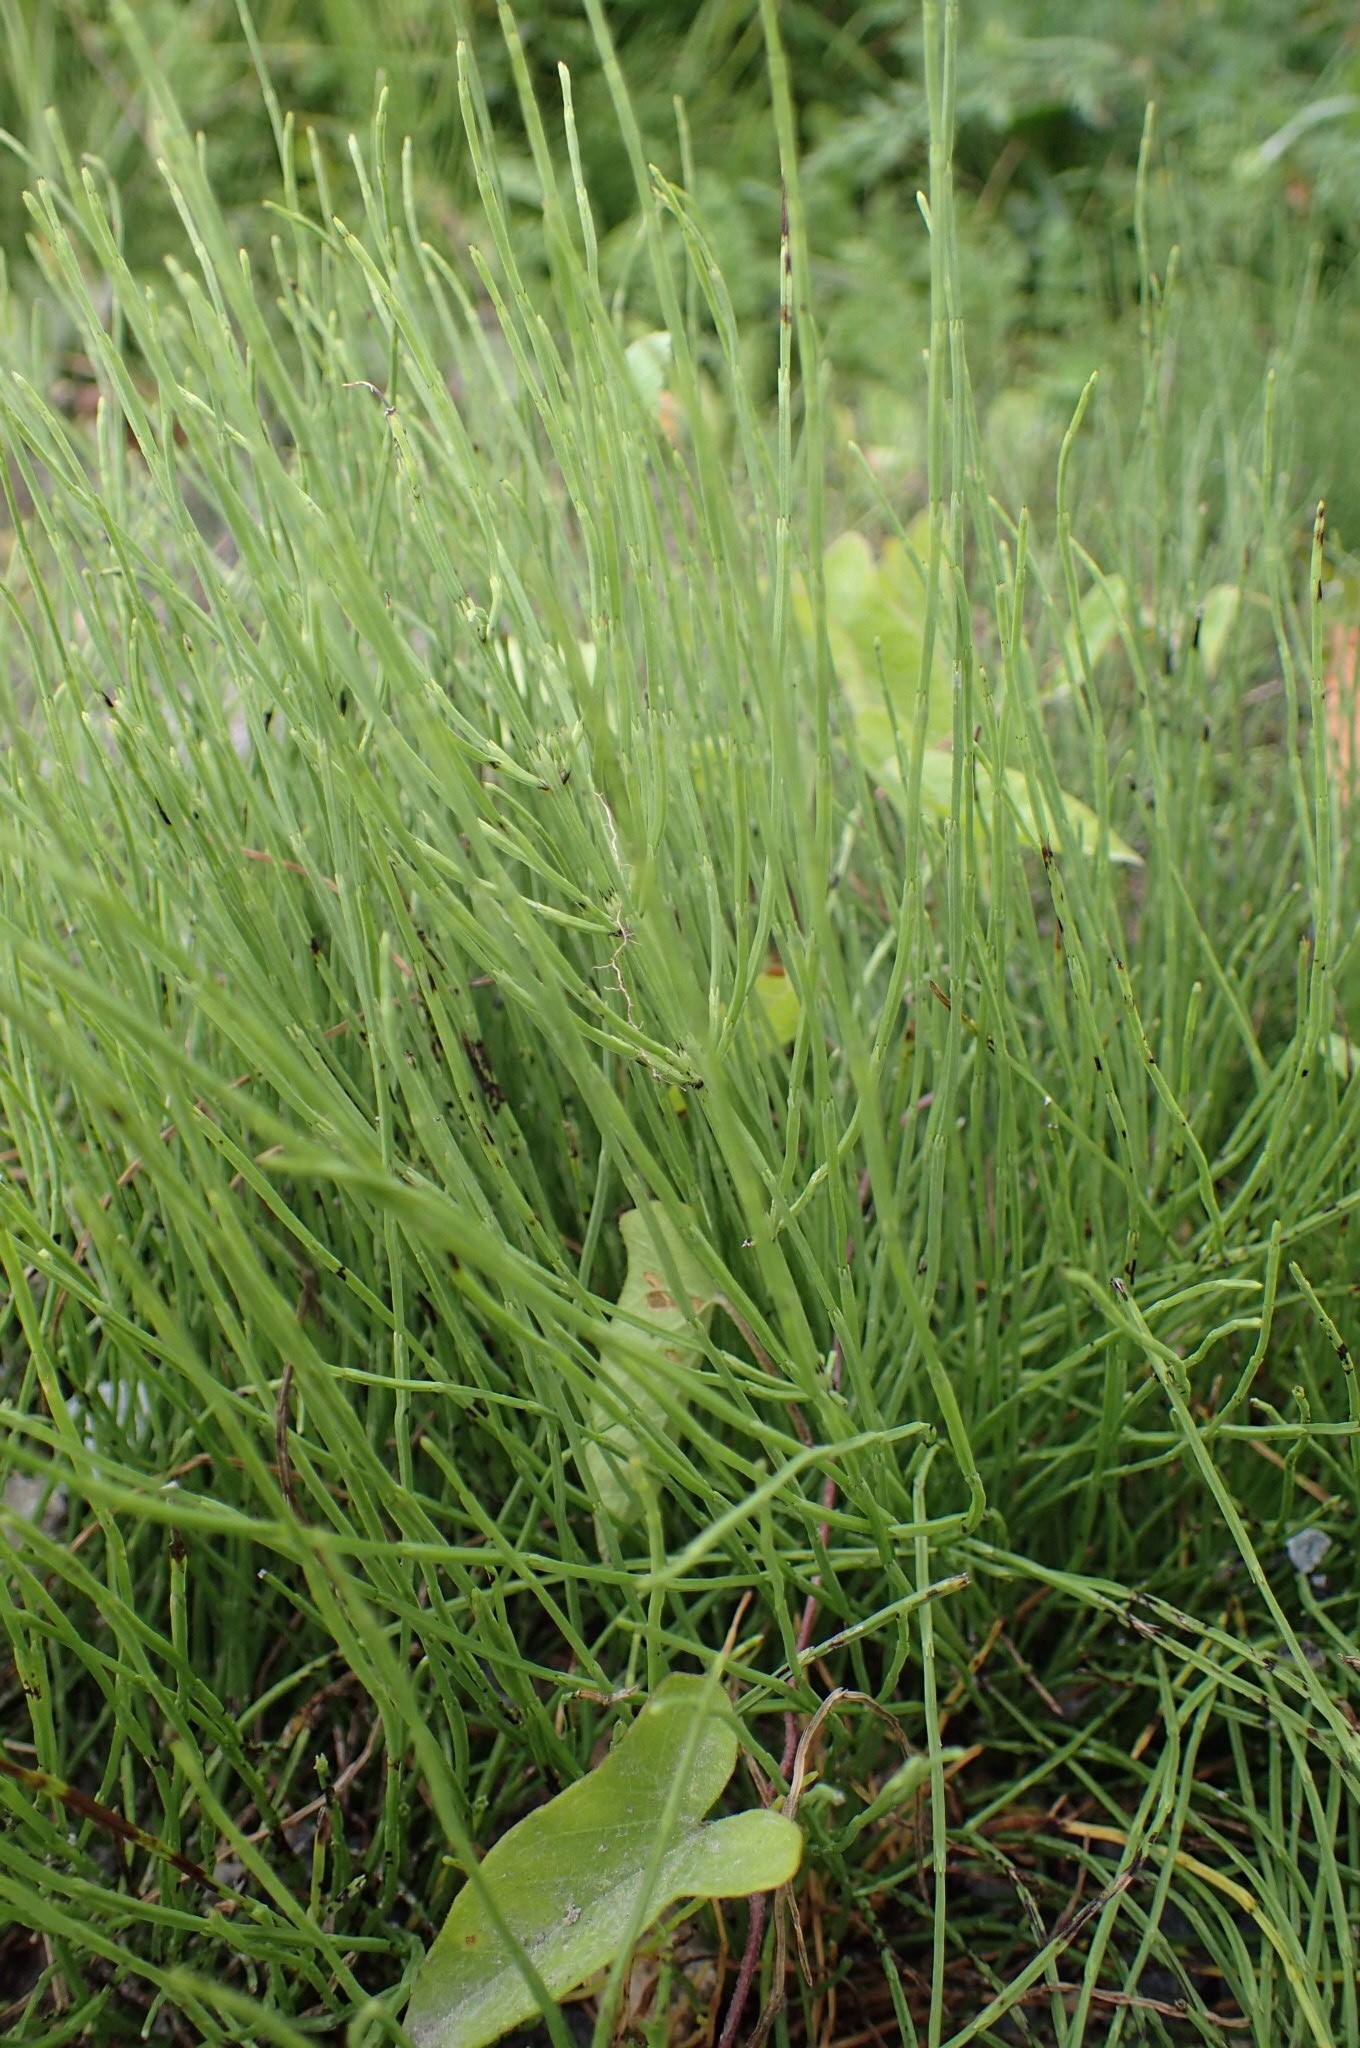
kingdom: Plantae
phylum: Tracheophyta
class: Polypodiopsida
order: Equisetales
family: Equisetaceae
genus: Equisetum
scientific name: Equisetum arvense
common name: Field horsetail
